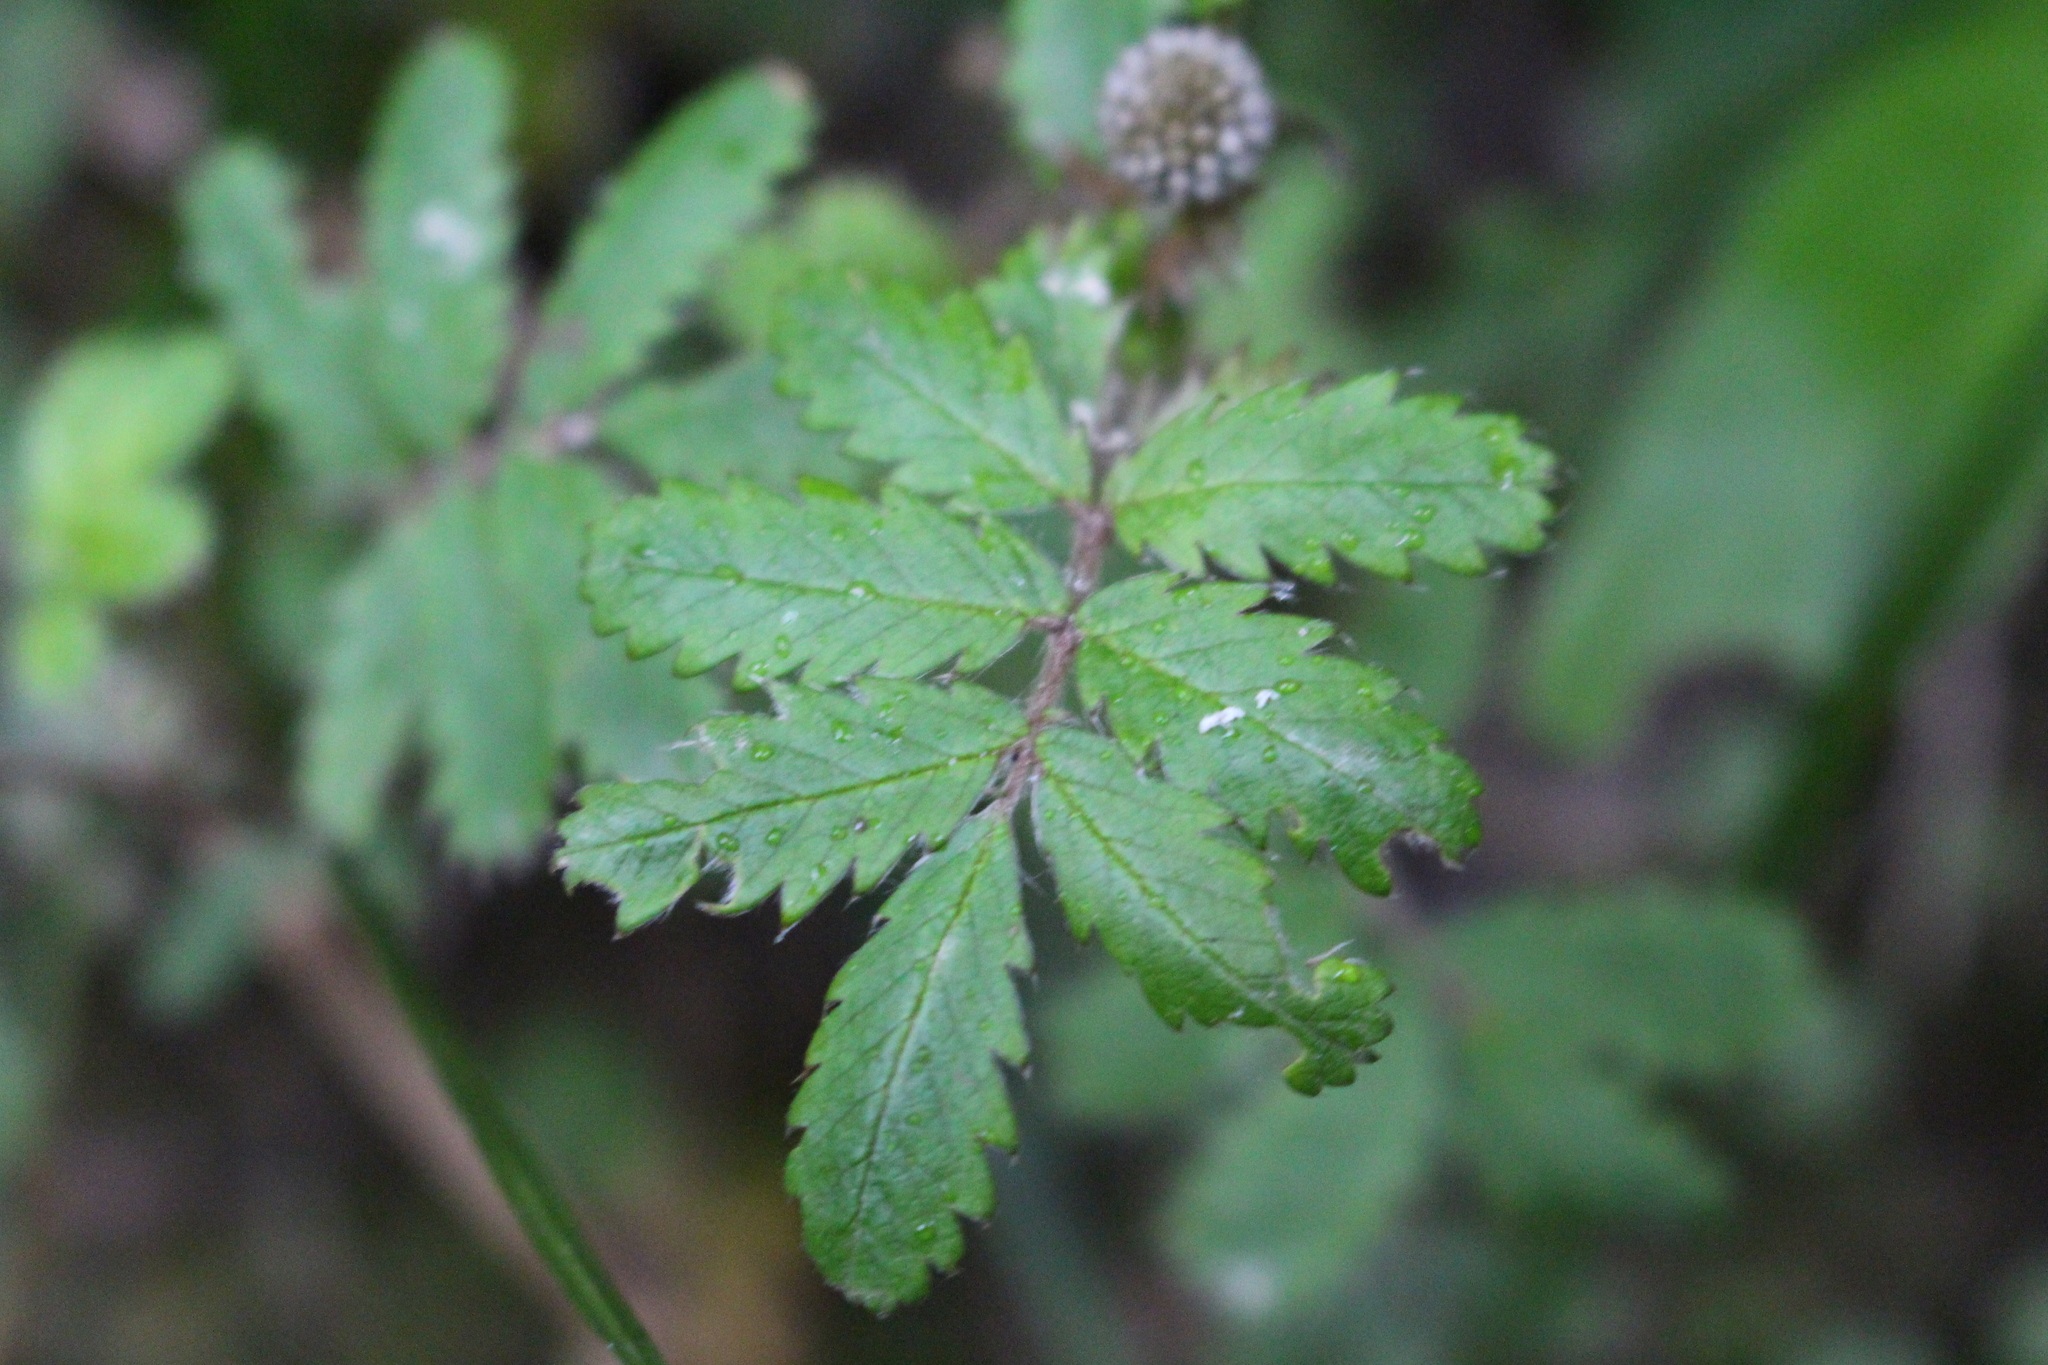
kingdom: Plantae
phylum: Tracheophyta
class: Magnoliopsida
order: Rosales
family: Rosaceae
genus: Acaena
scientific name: Acaena anserinifolia
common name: Bronze pirri-pirri-bur
